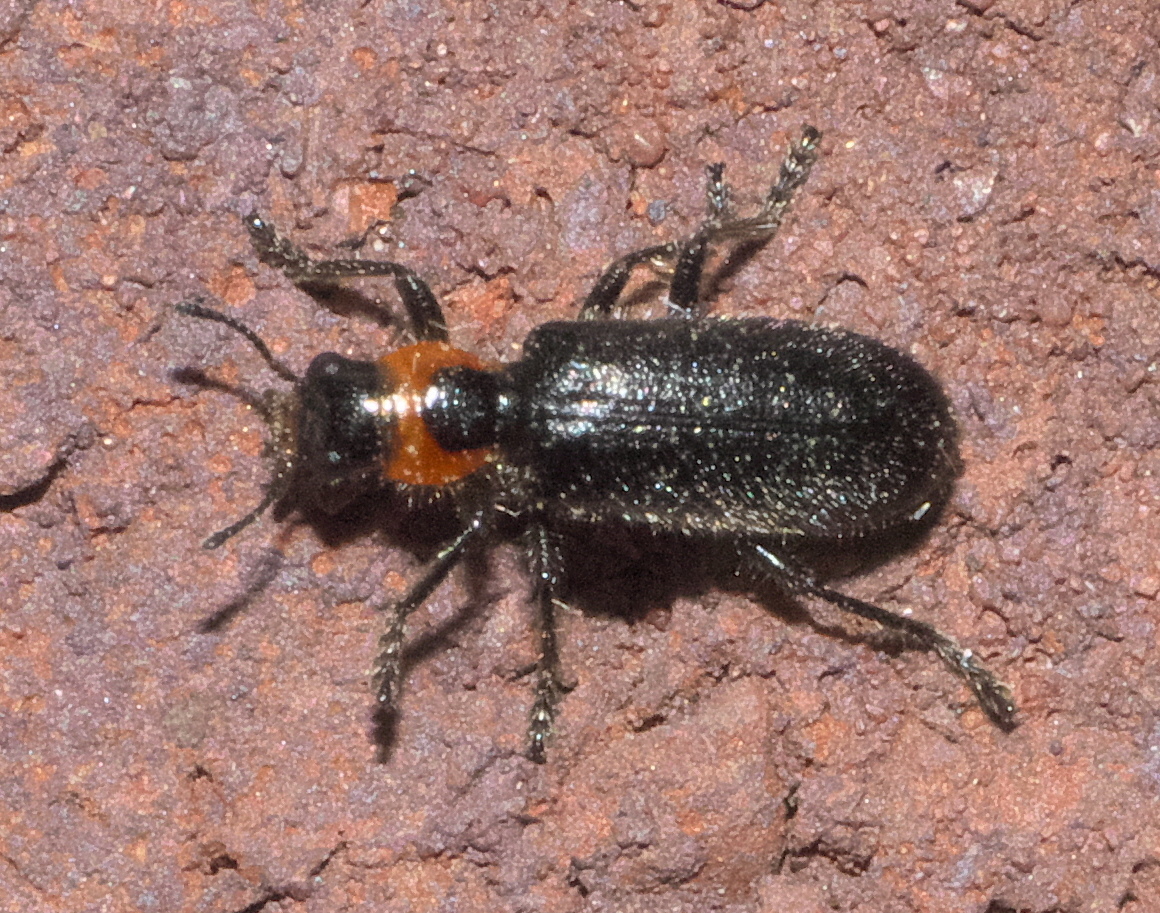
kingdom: Animalia
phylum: Arthropoda
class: Insecta
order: Coleoptera
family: Cleridae
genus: Placopterus
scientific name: Placopterus thoracicus
